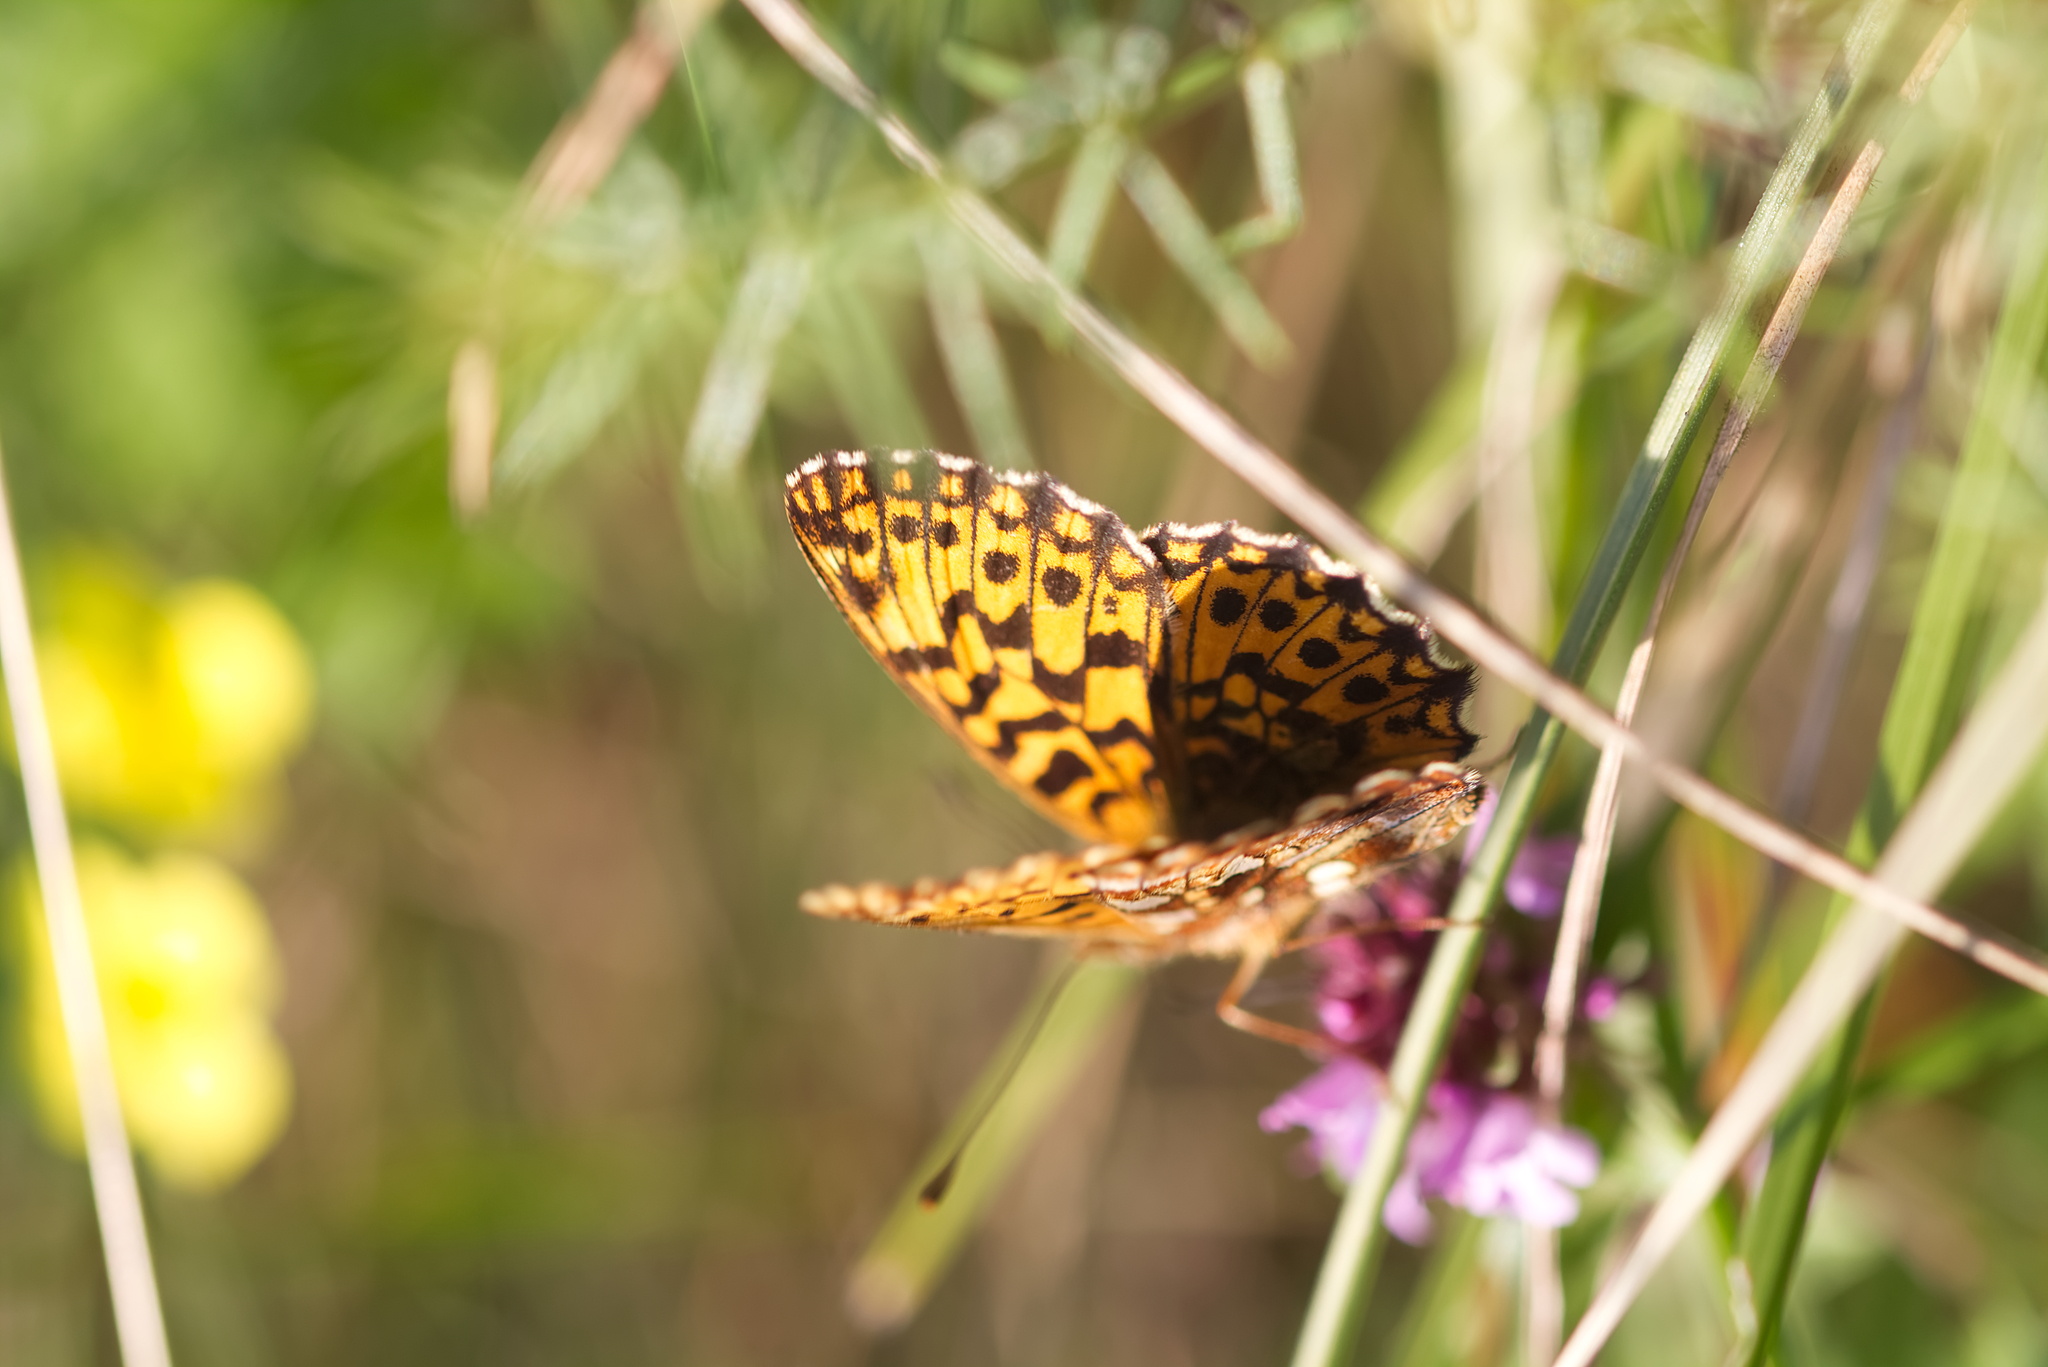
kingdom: Animalia
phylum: Arthropoda
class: Insecta
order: Lepidoptera
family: Nymphalidae
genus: Boloria
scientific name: Boloria dia
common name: Weaver's fritillary
